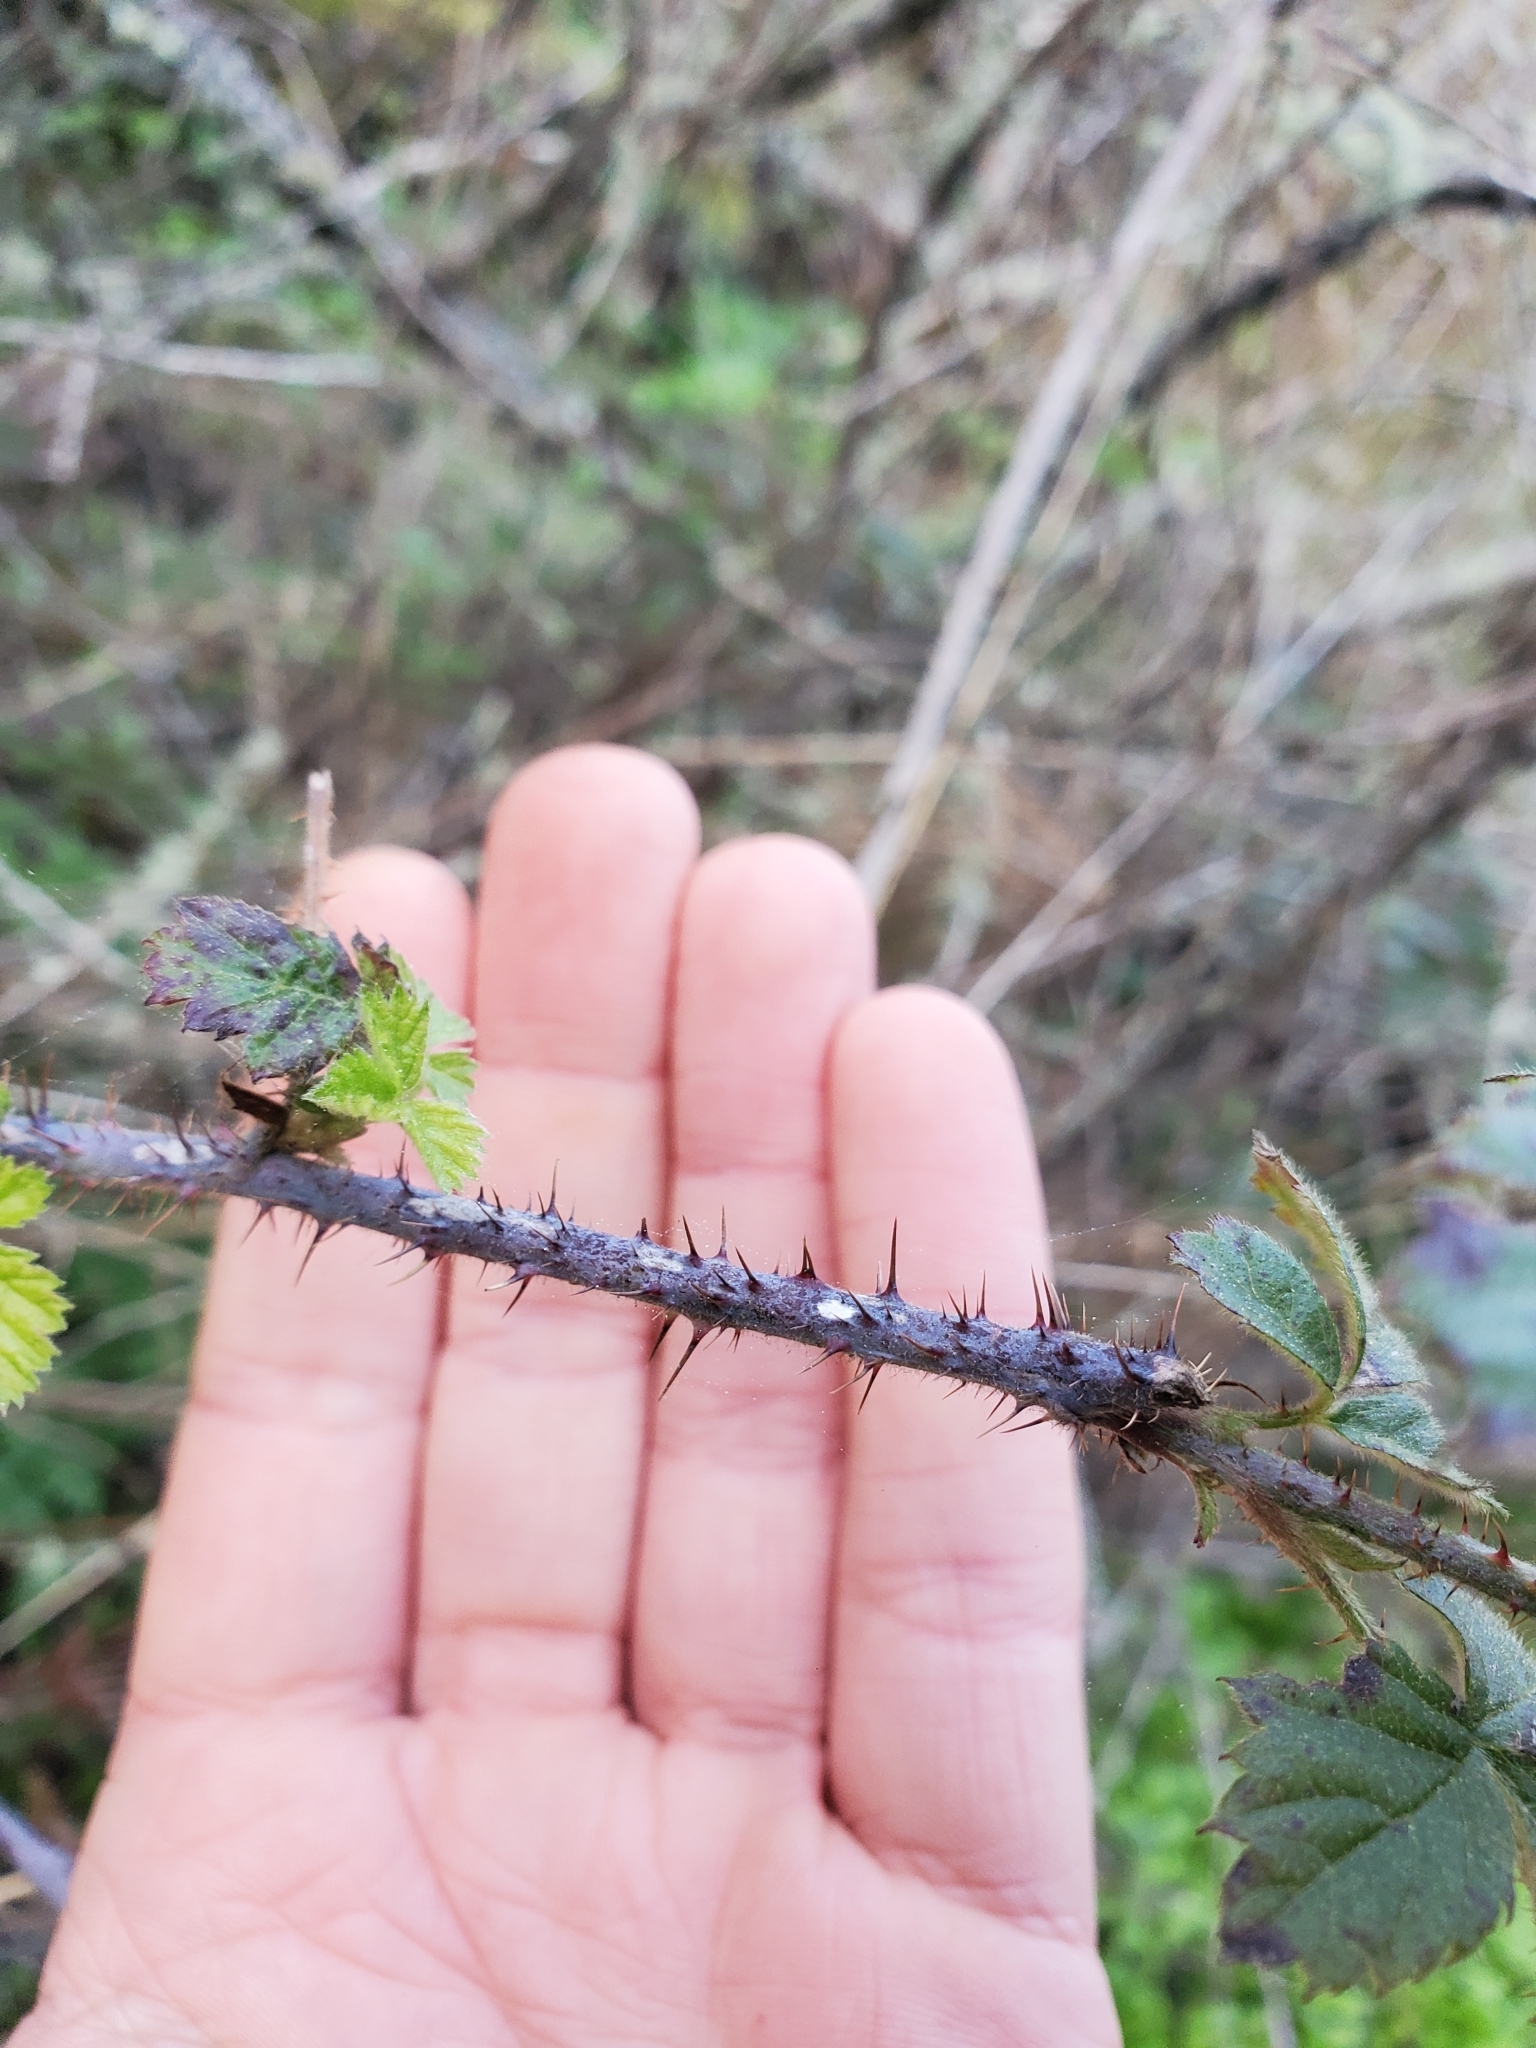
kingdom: Plantae
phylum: Tracheophyta
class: Magnoliopsida
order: Rosales
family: Rosaceae
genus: Rubus
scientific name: Rubus ursinus
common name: Pacific blackberry
